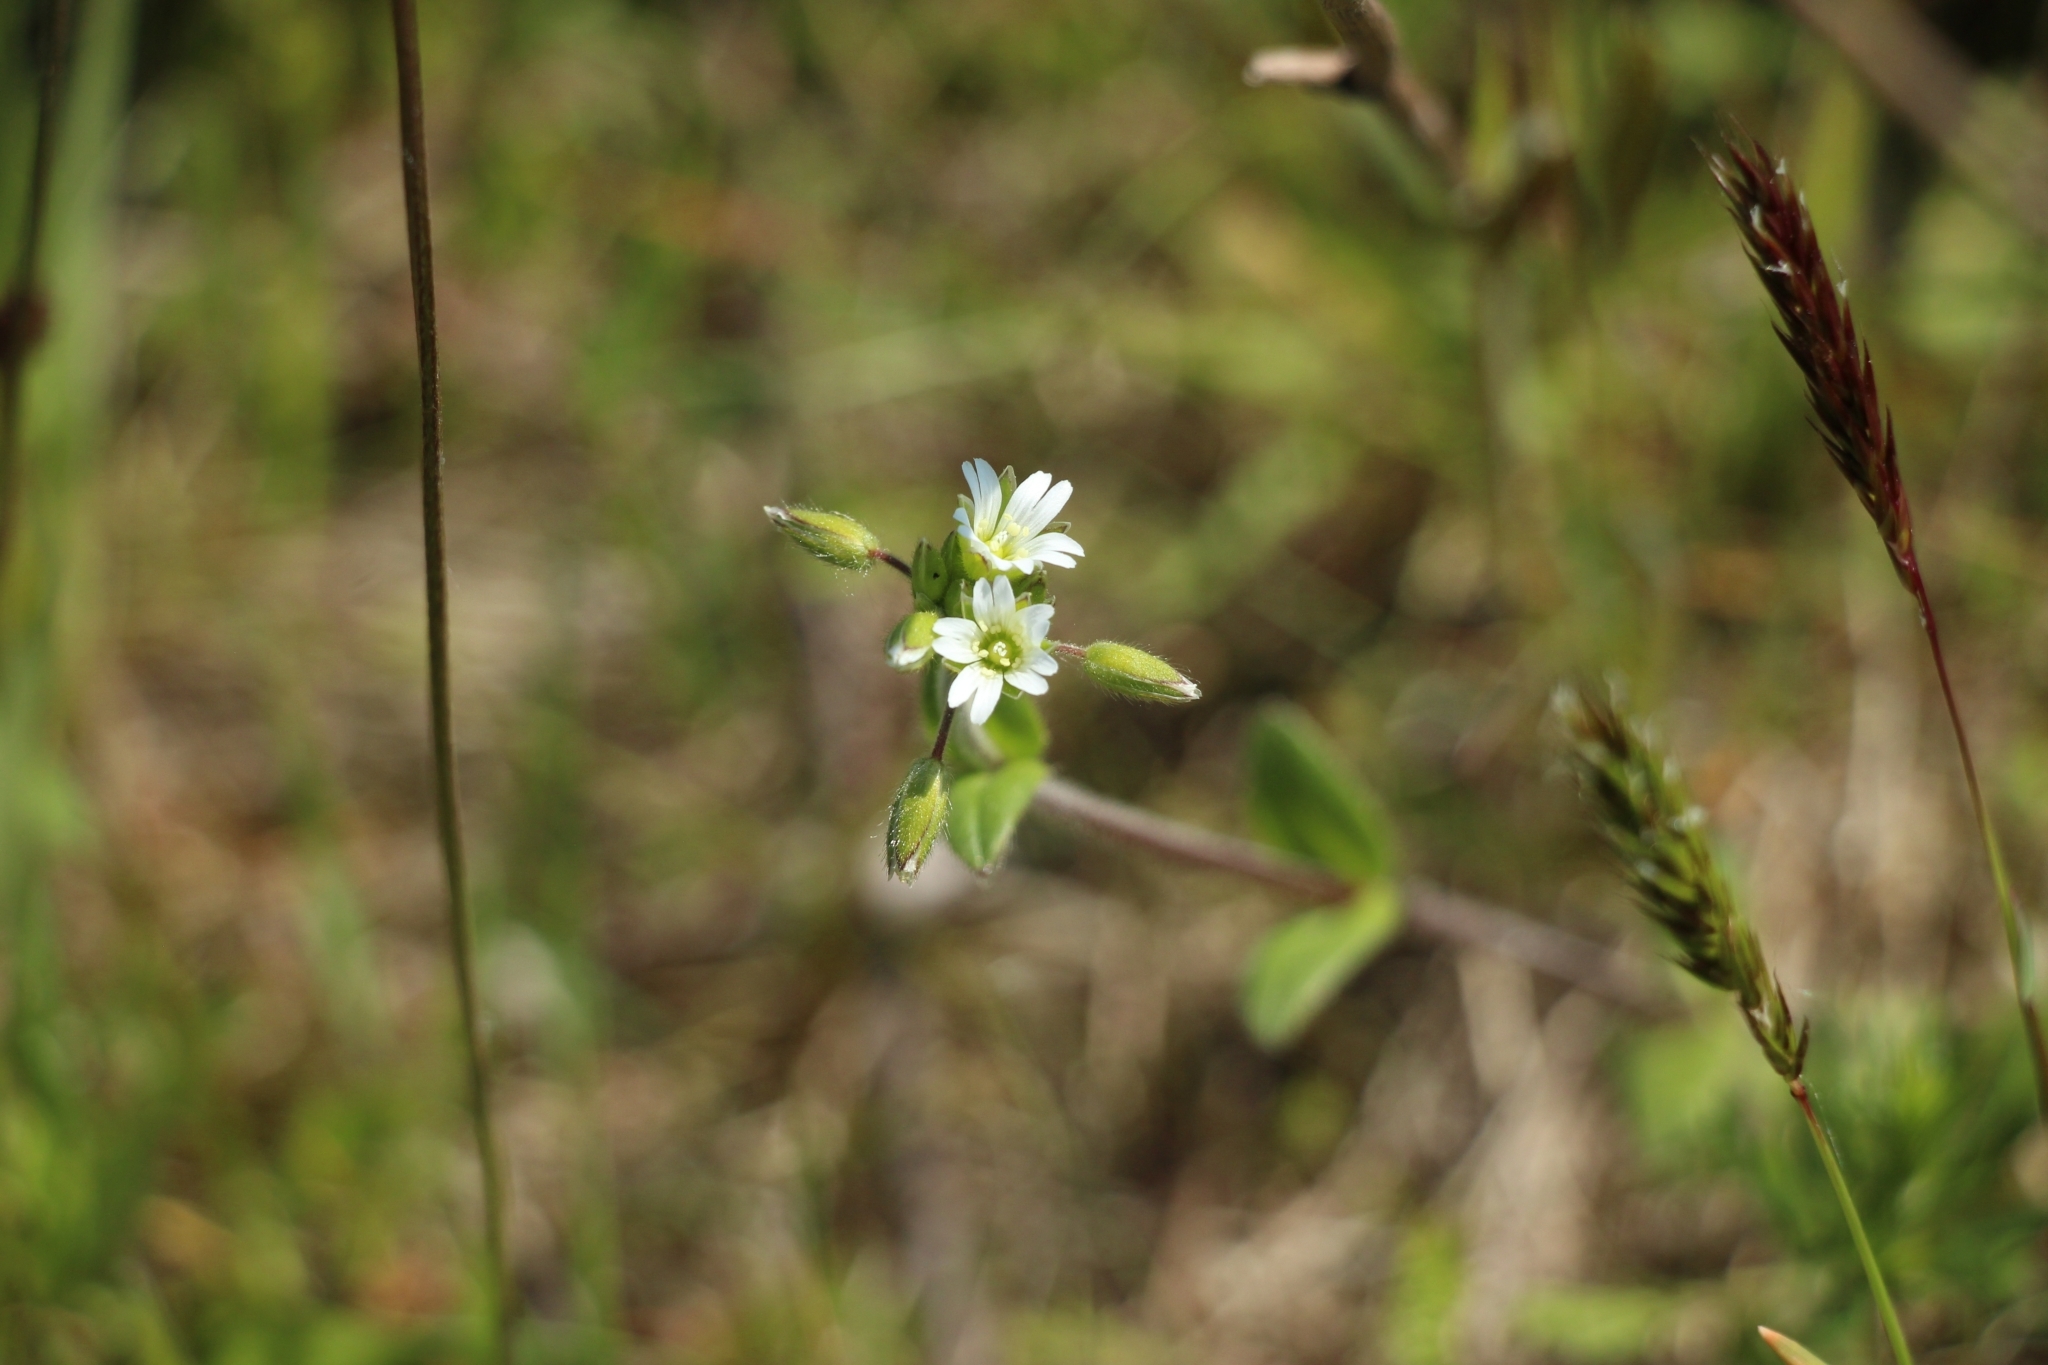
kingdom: Plantae
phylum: Tracheophyta
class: Magnoliopsida
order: Caryophyllales
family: Caryophyllaceae
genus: Cerastium
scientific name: Cerastium holosteoides
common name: Big chickweed
